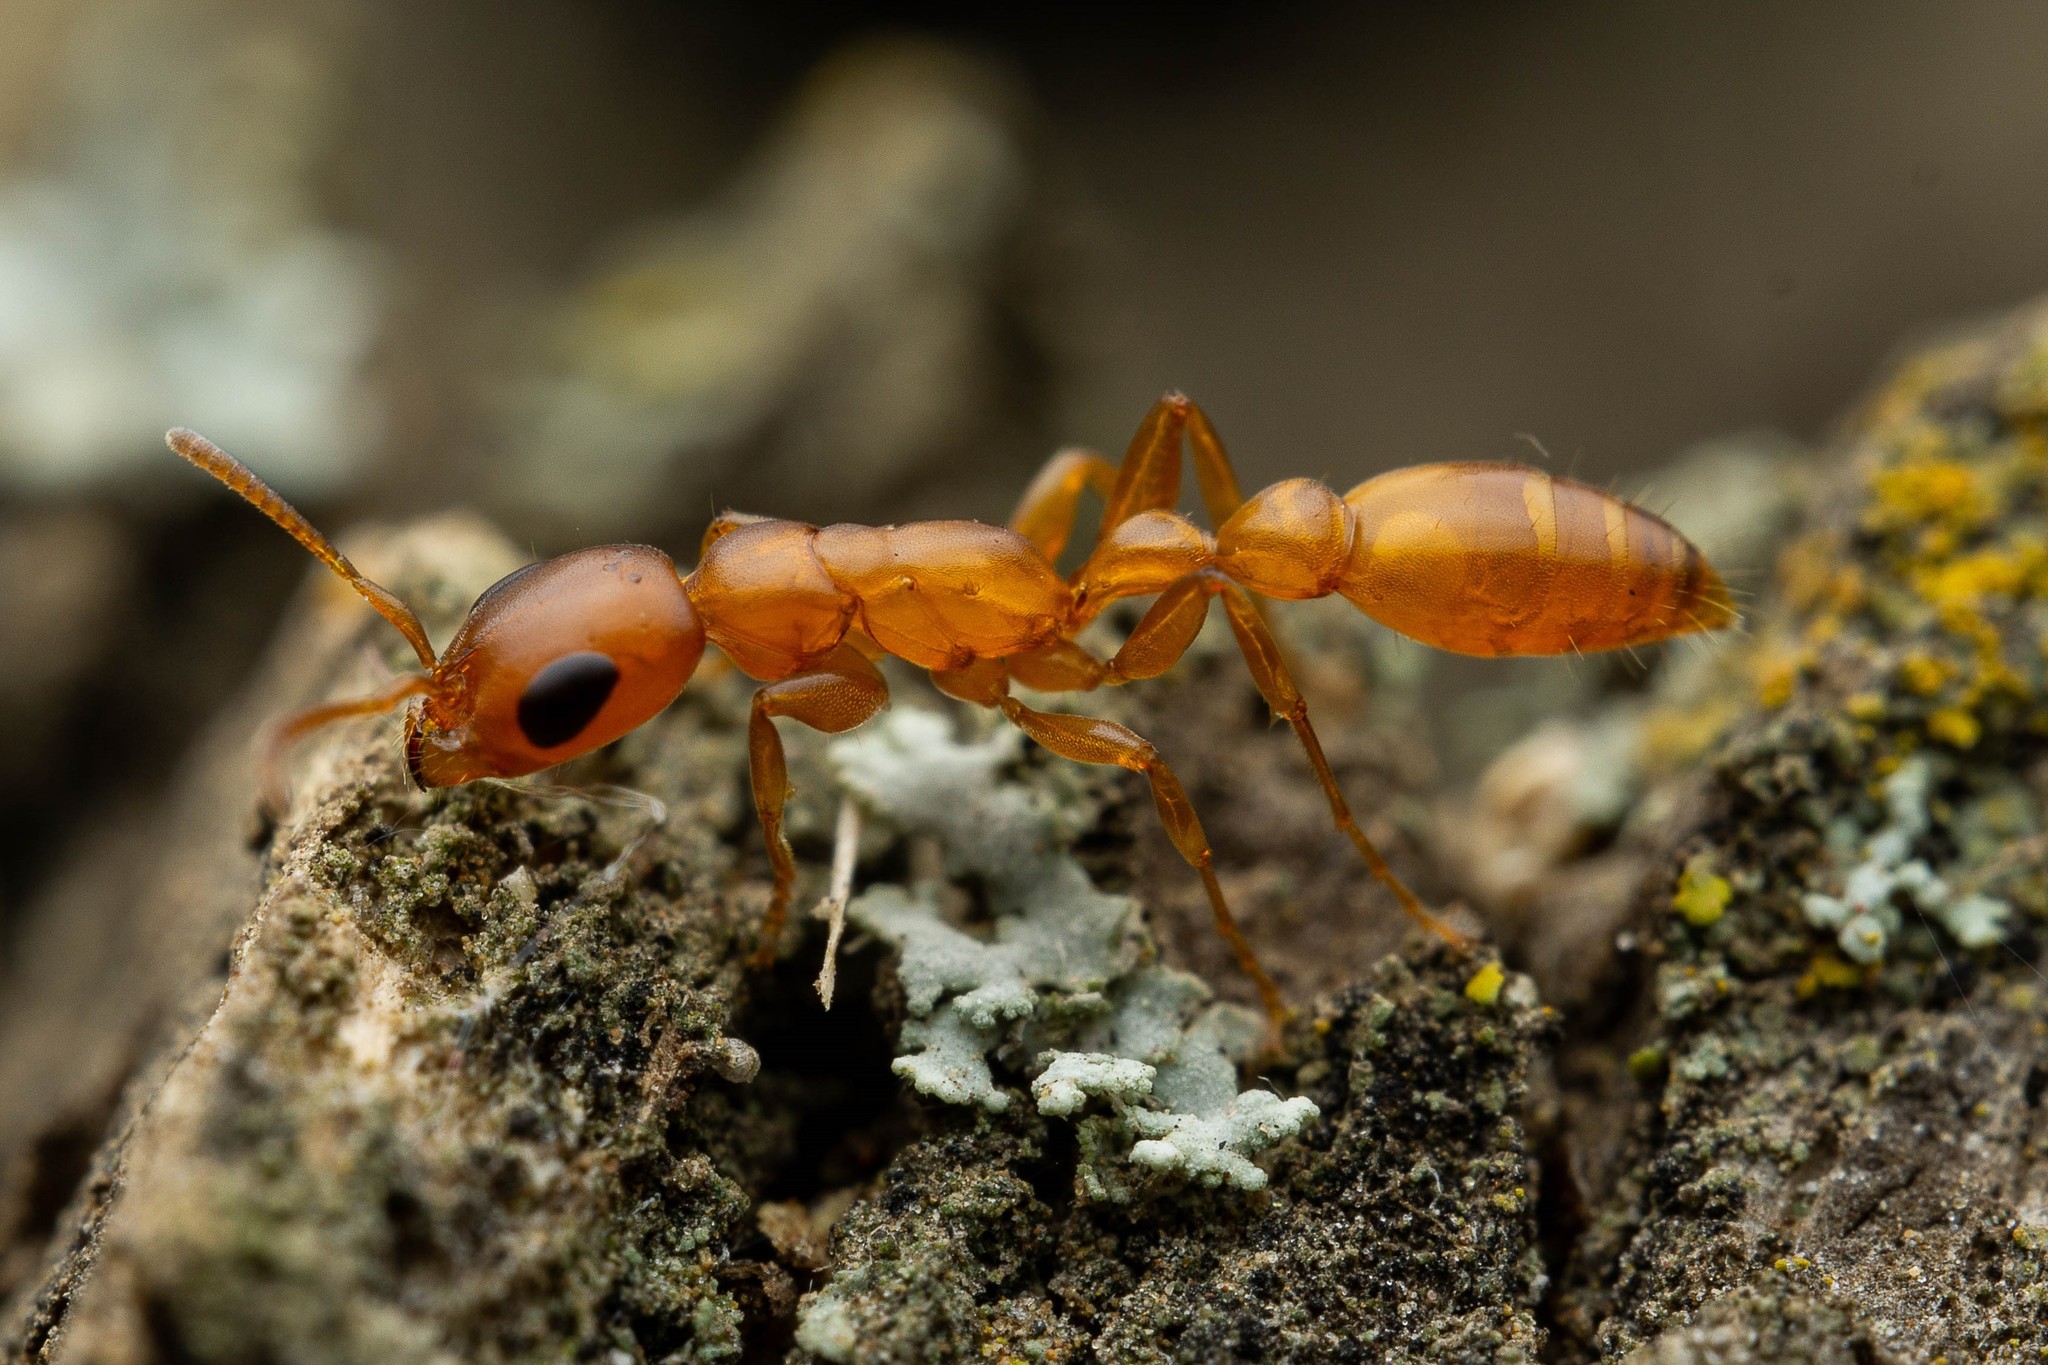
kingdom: Animalia
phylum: Arthropoda
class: Insecta
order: Hymenoptera
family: Formicidae
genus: Pseudomyrmex
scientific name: Pseudomyrmex apache
